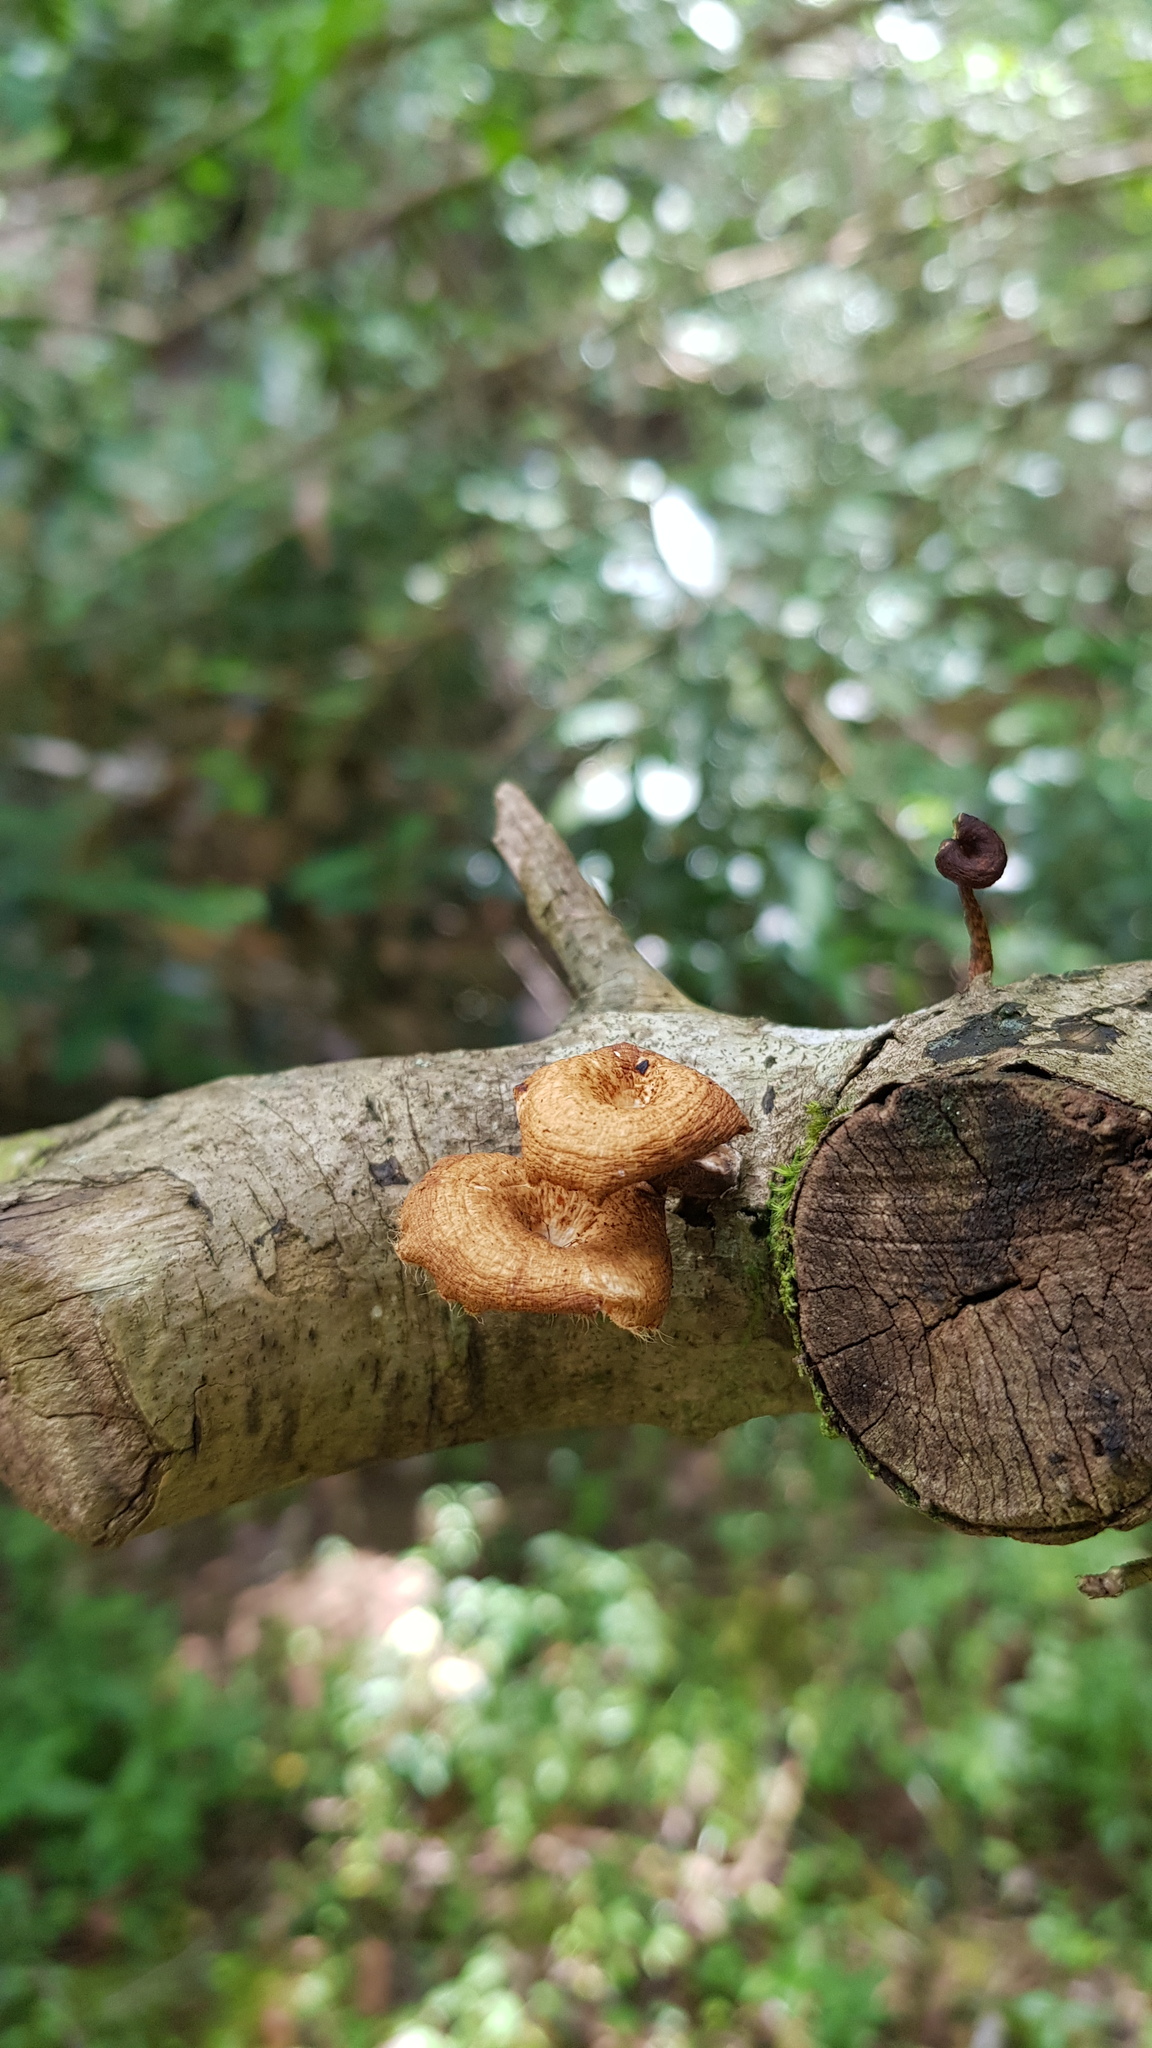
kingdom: Fungi
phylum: Basidiomycota
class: Agaricomycetes
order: Polyporales
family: Polyporaceae
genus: Lentinus
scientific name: Lentinus arcularius
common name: Spring polypore
